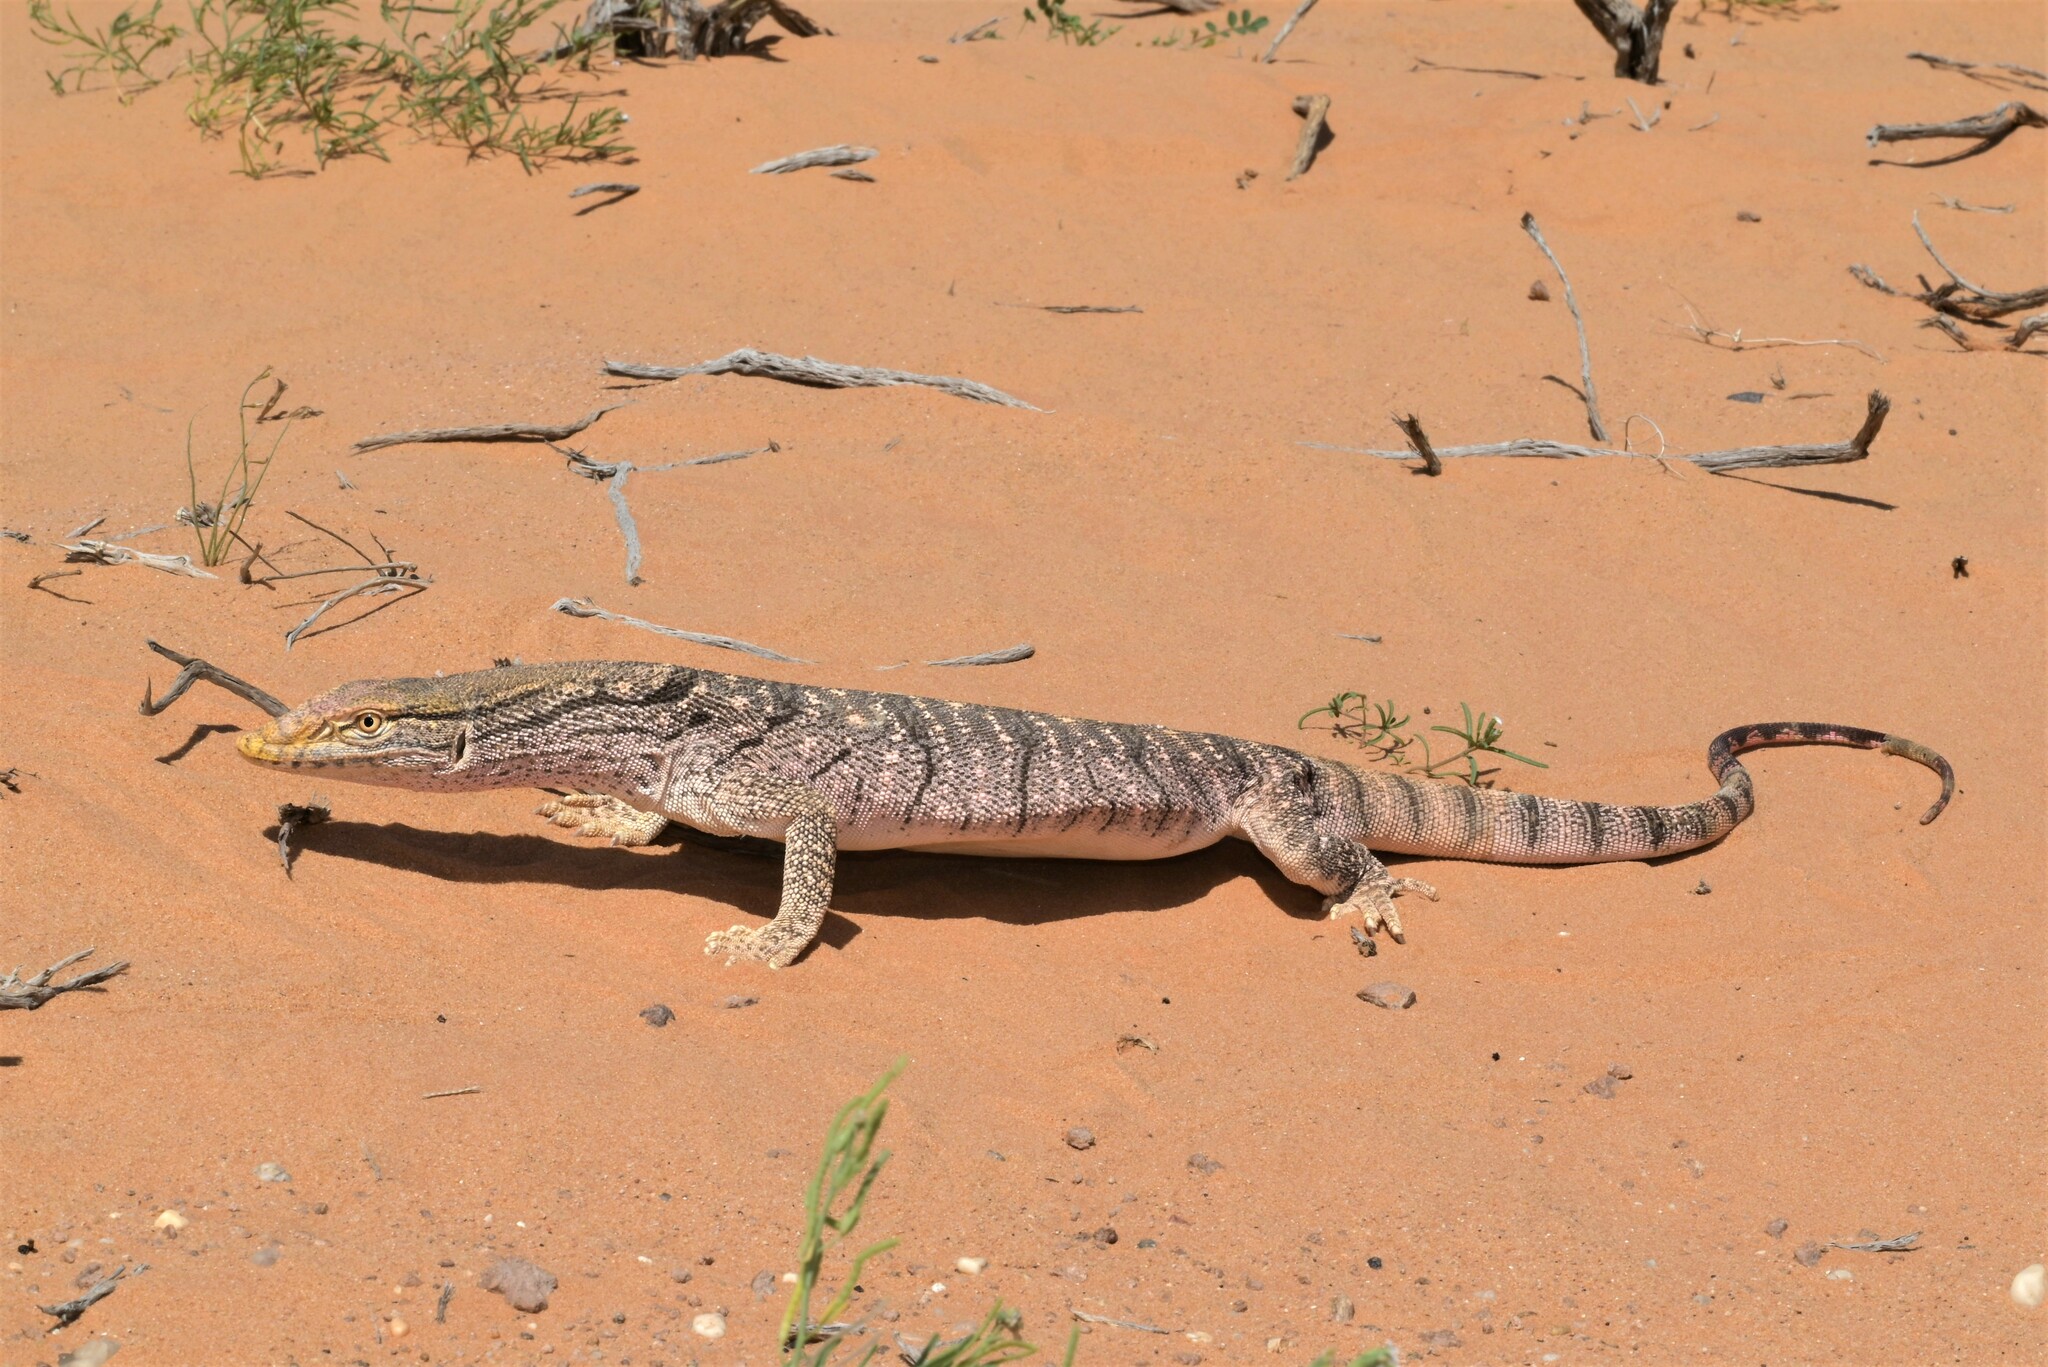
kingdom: Animalia
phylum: Chordata
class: Squamata
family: Varanidae
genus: Varanus
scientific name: Varanus griseus
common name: Desert monitor
